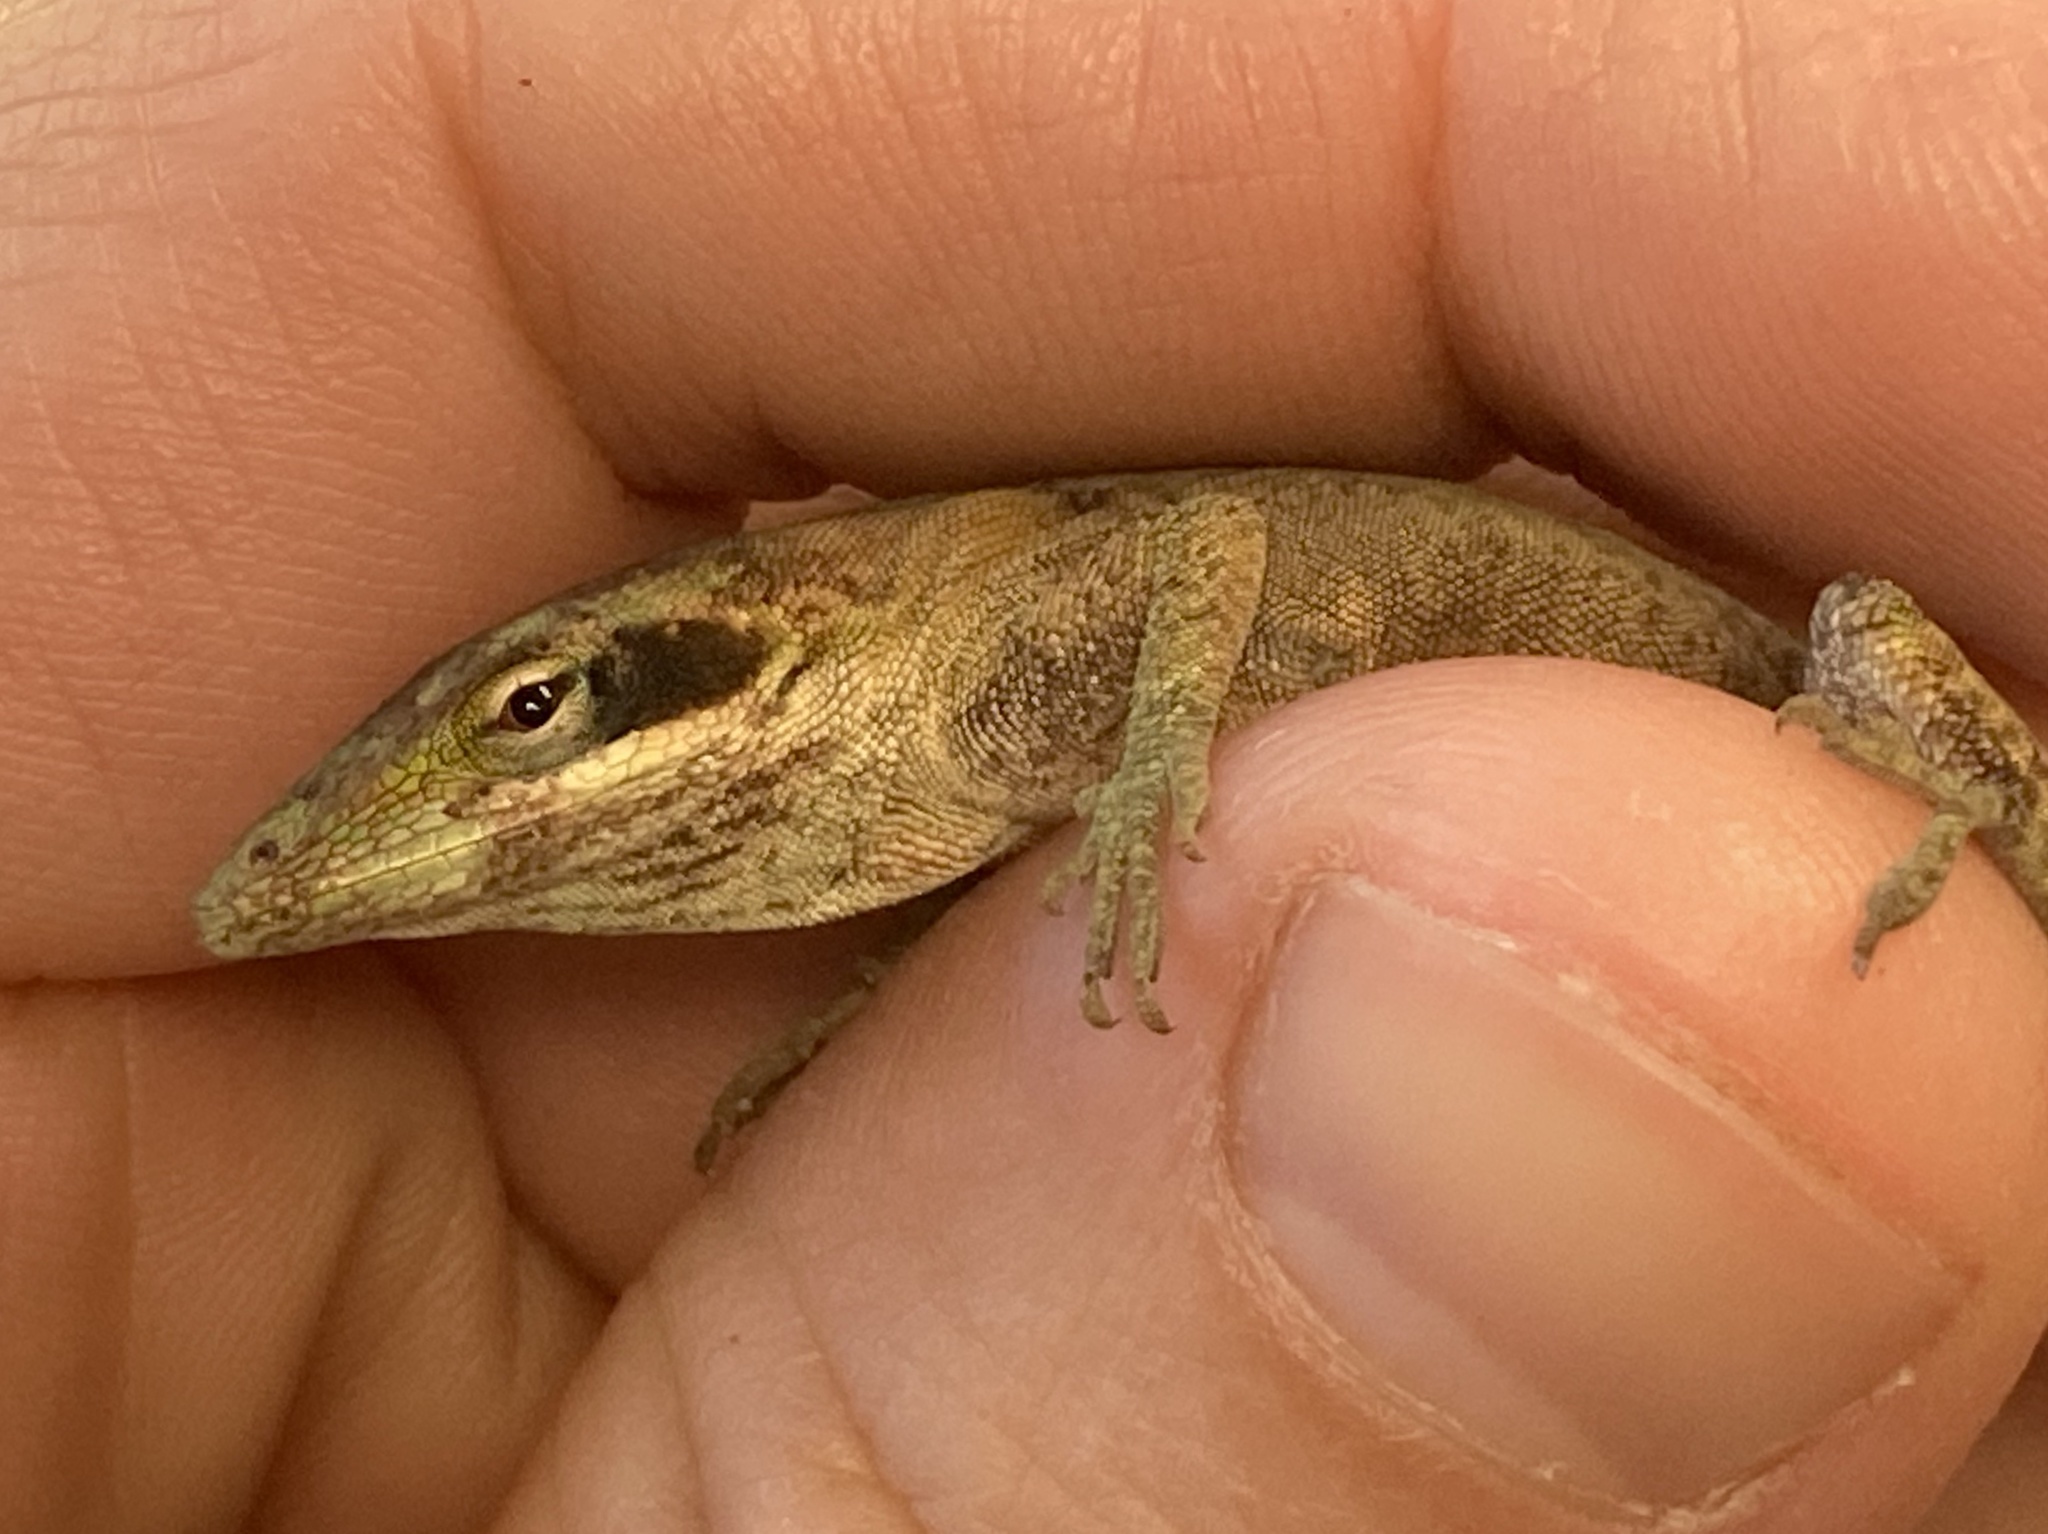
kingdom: Animalia
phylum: Chordata
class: Squamata
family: Dactyloidae
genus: Anolis
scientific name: Anolis carolinensis
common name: Green anole
